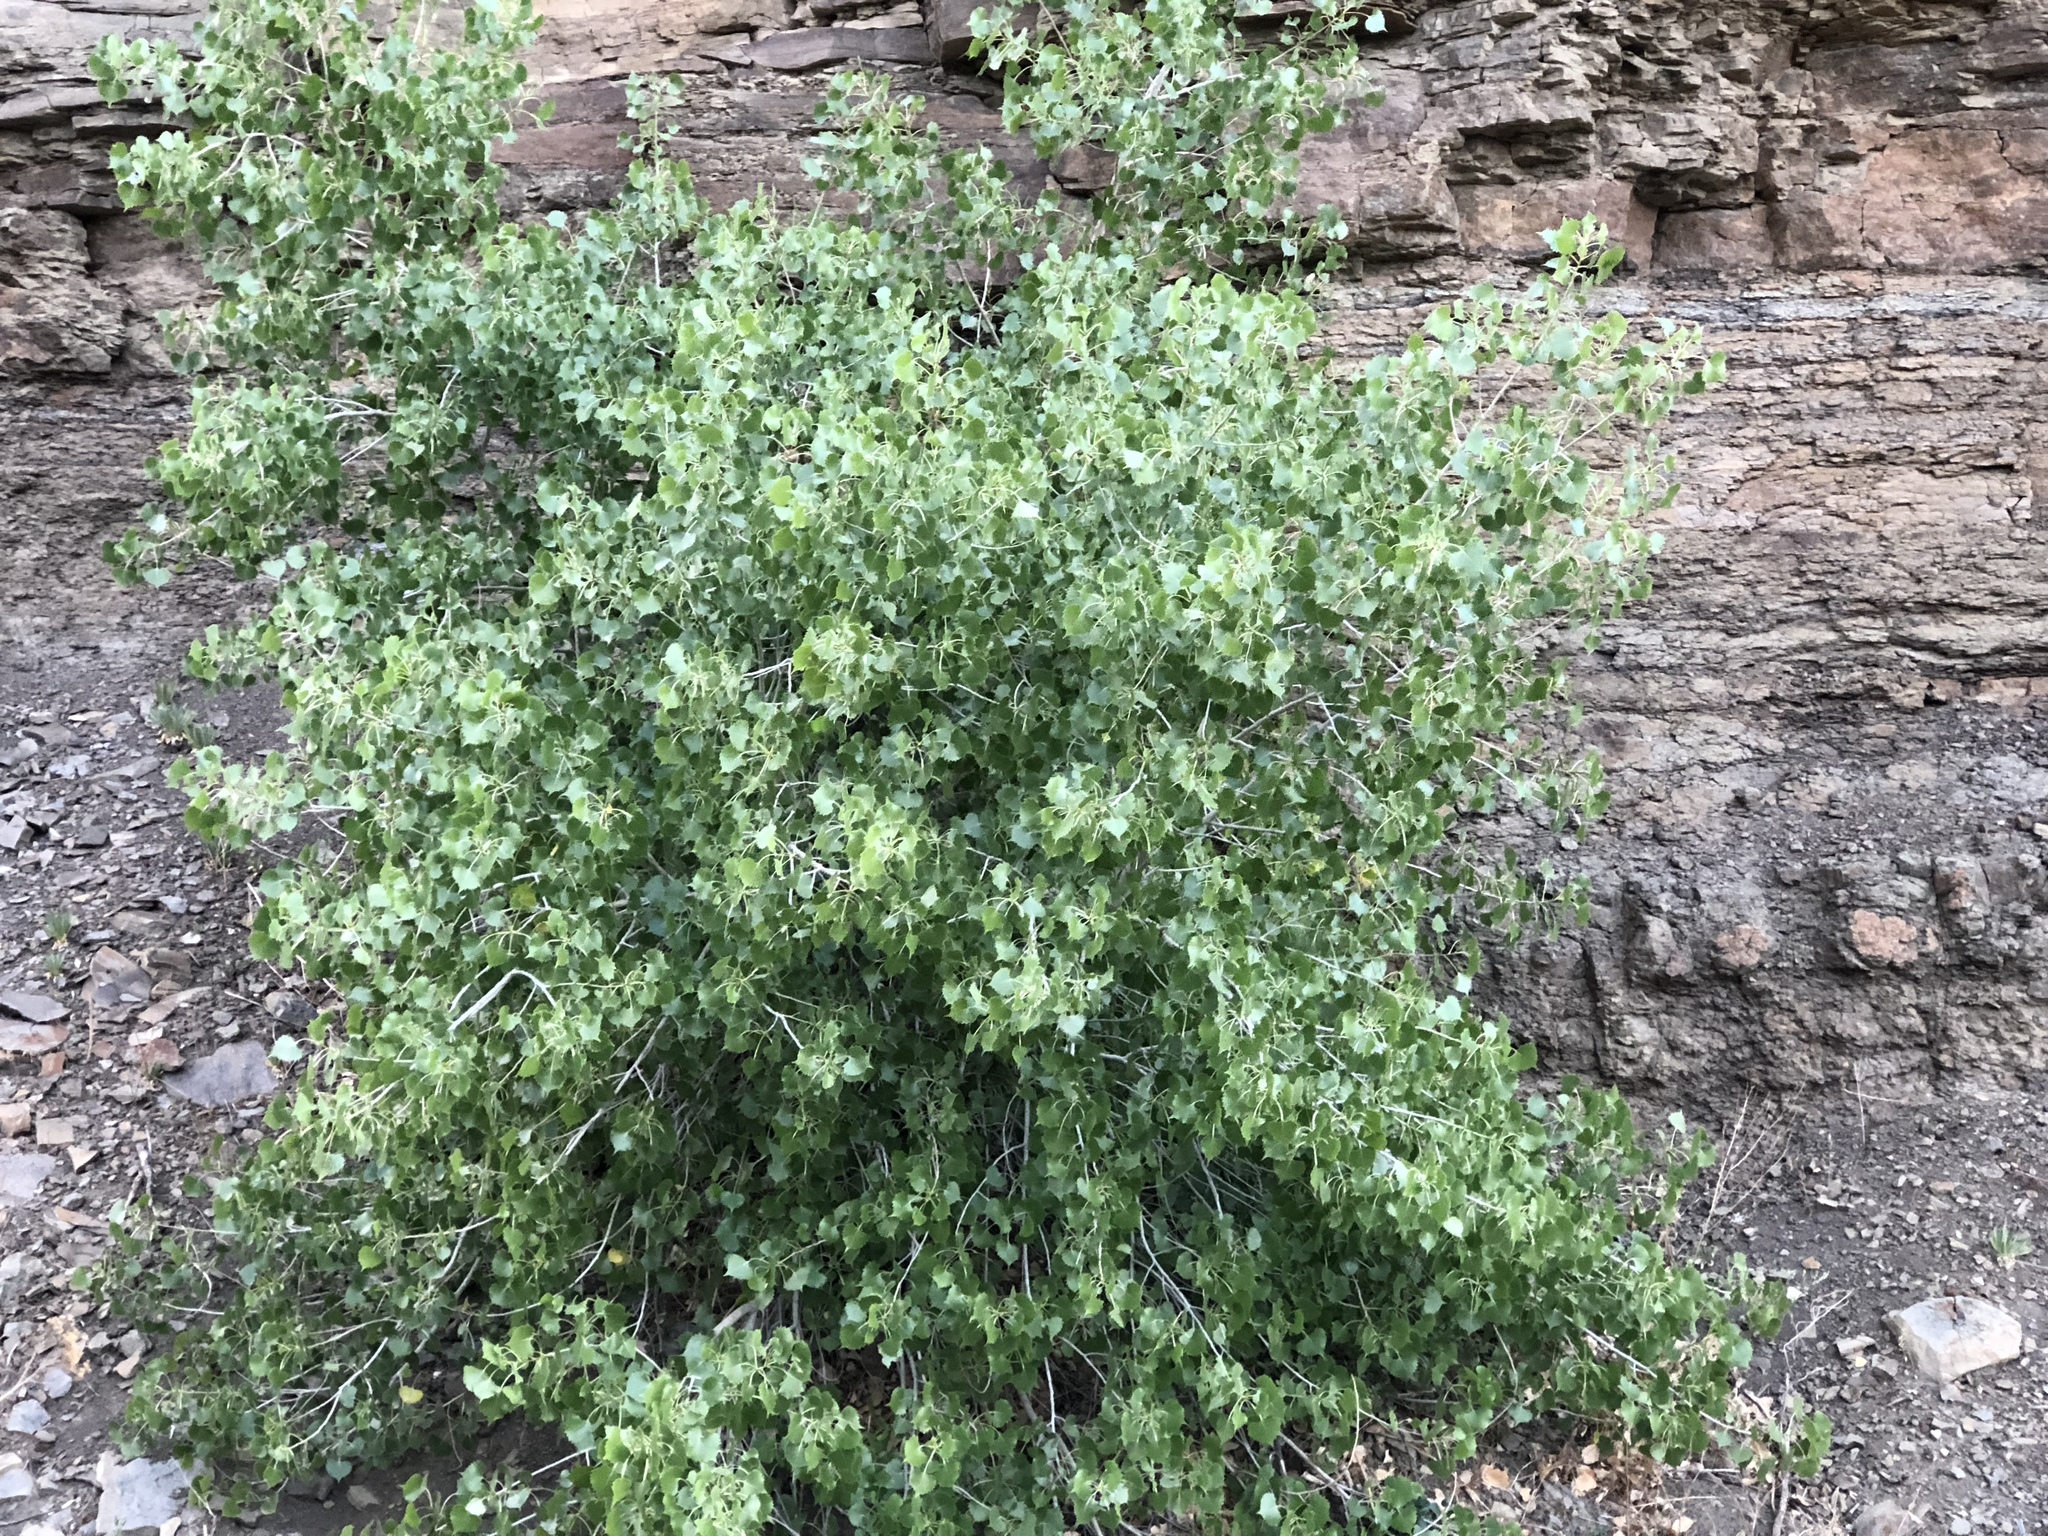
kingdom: Plantae
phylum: Tracheophyta
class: Magnoliopsida
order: Malpighiales
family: Salicaceae
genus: Populus
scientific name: Populus deltoides
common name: Eastern cottonwood
